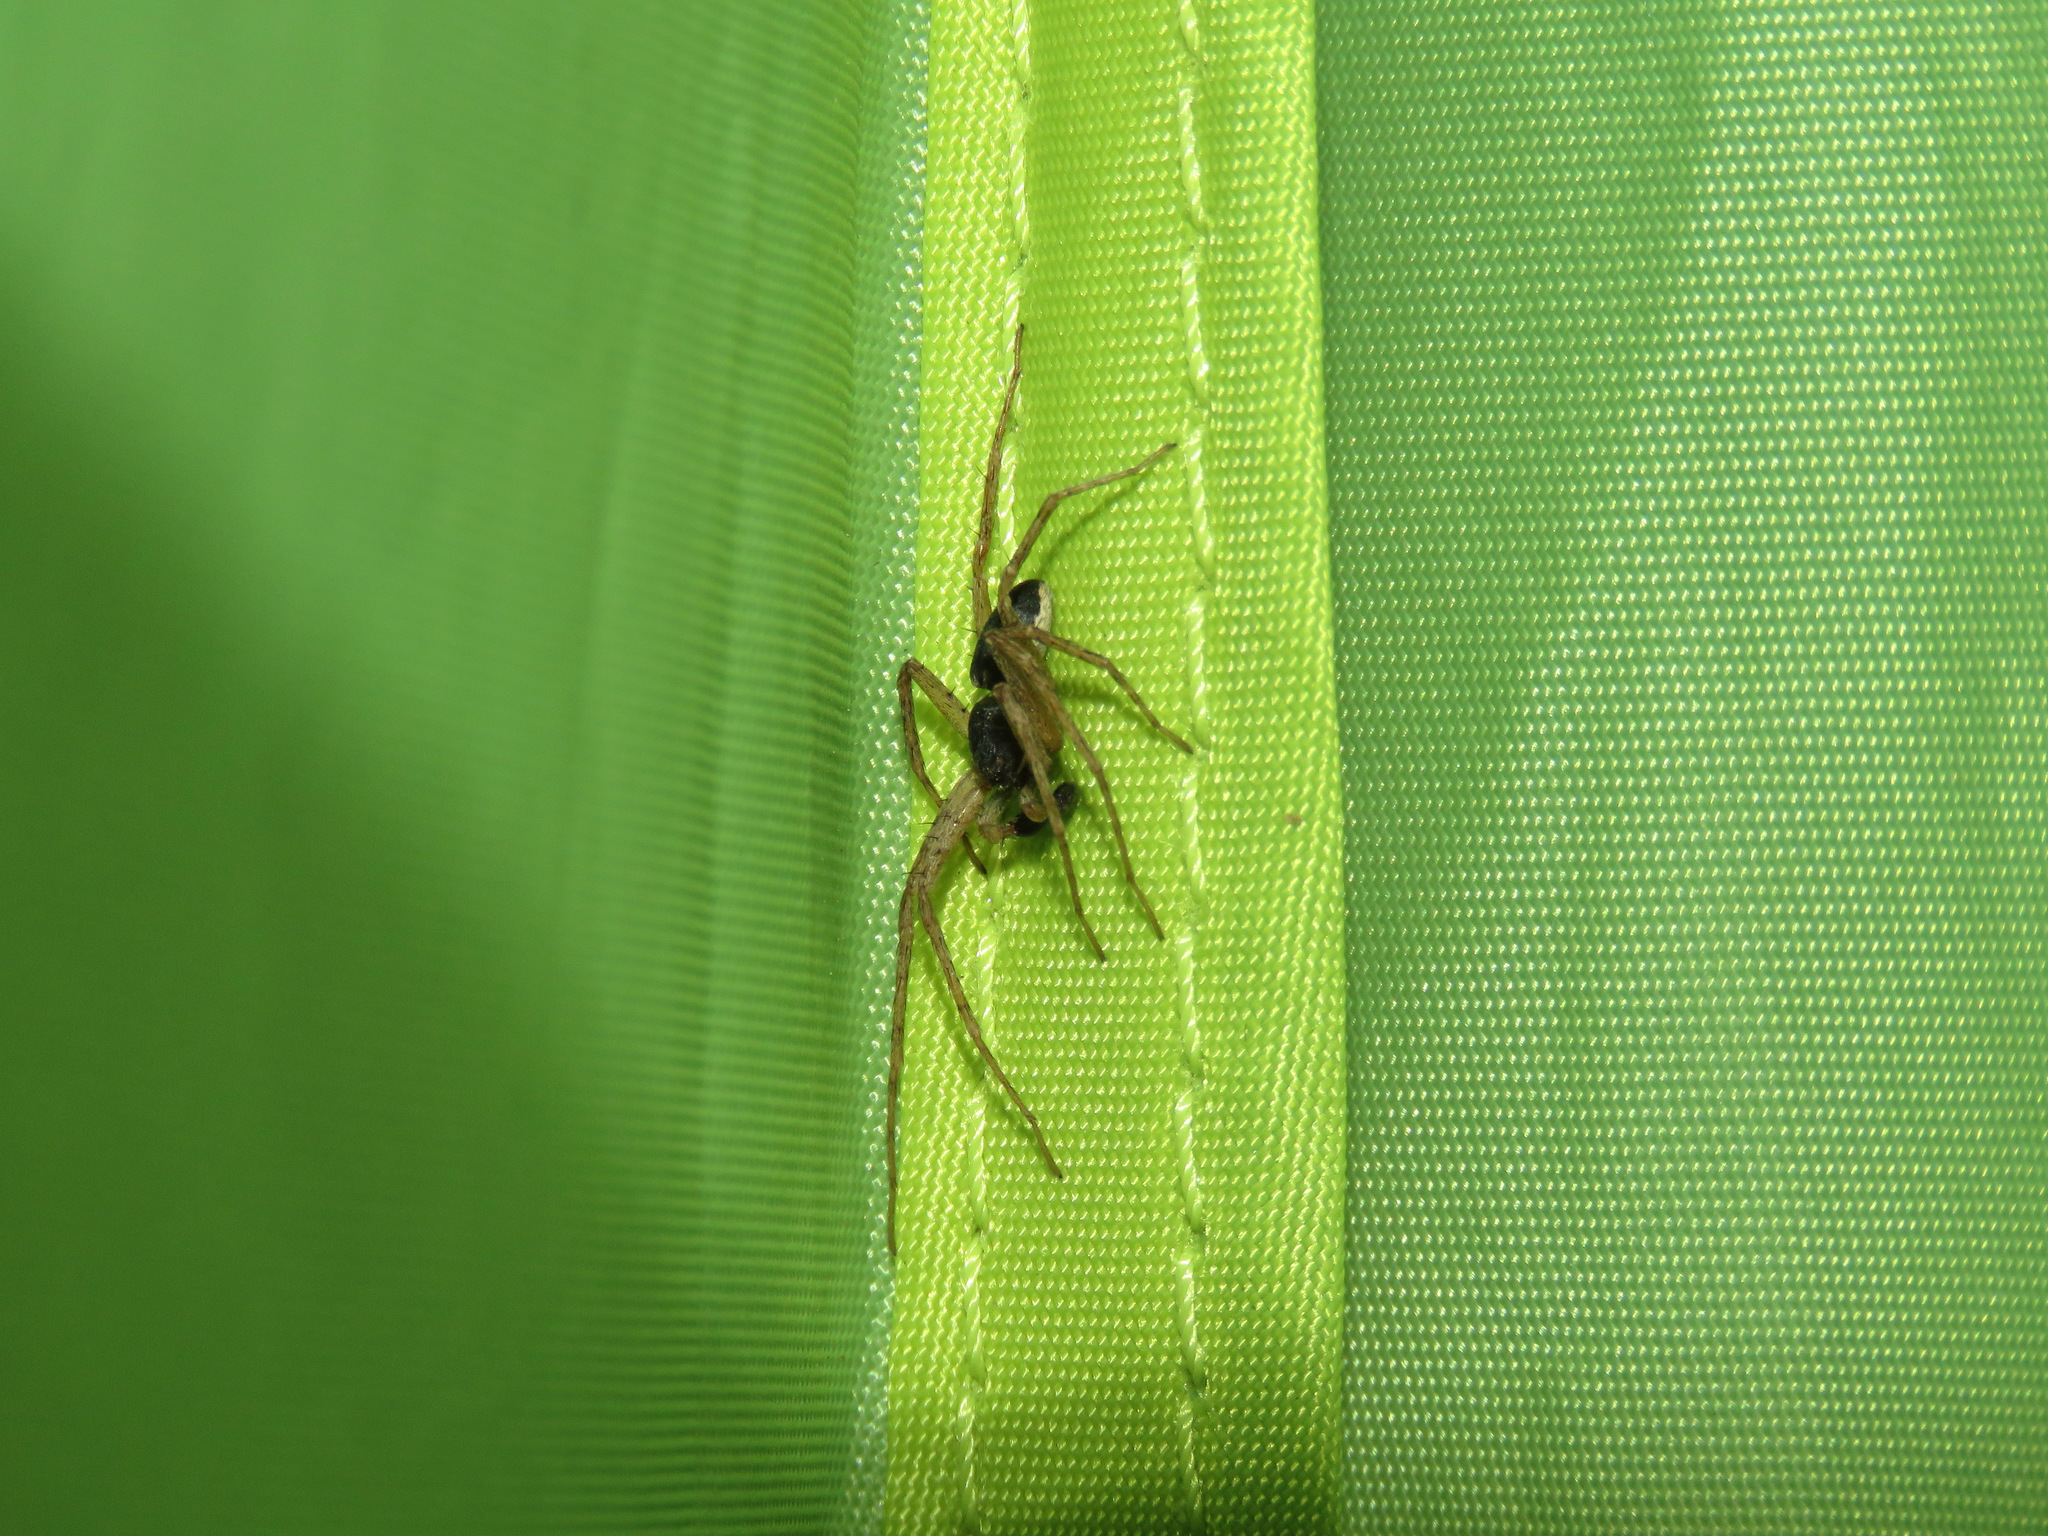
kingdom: Animalia
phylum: Arthropoda
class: Arachnida
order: Araneae
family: Philodromidae
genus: Philodromus
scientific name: Philodromus dispar
